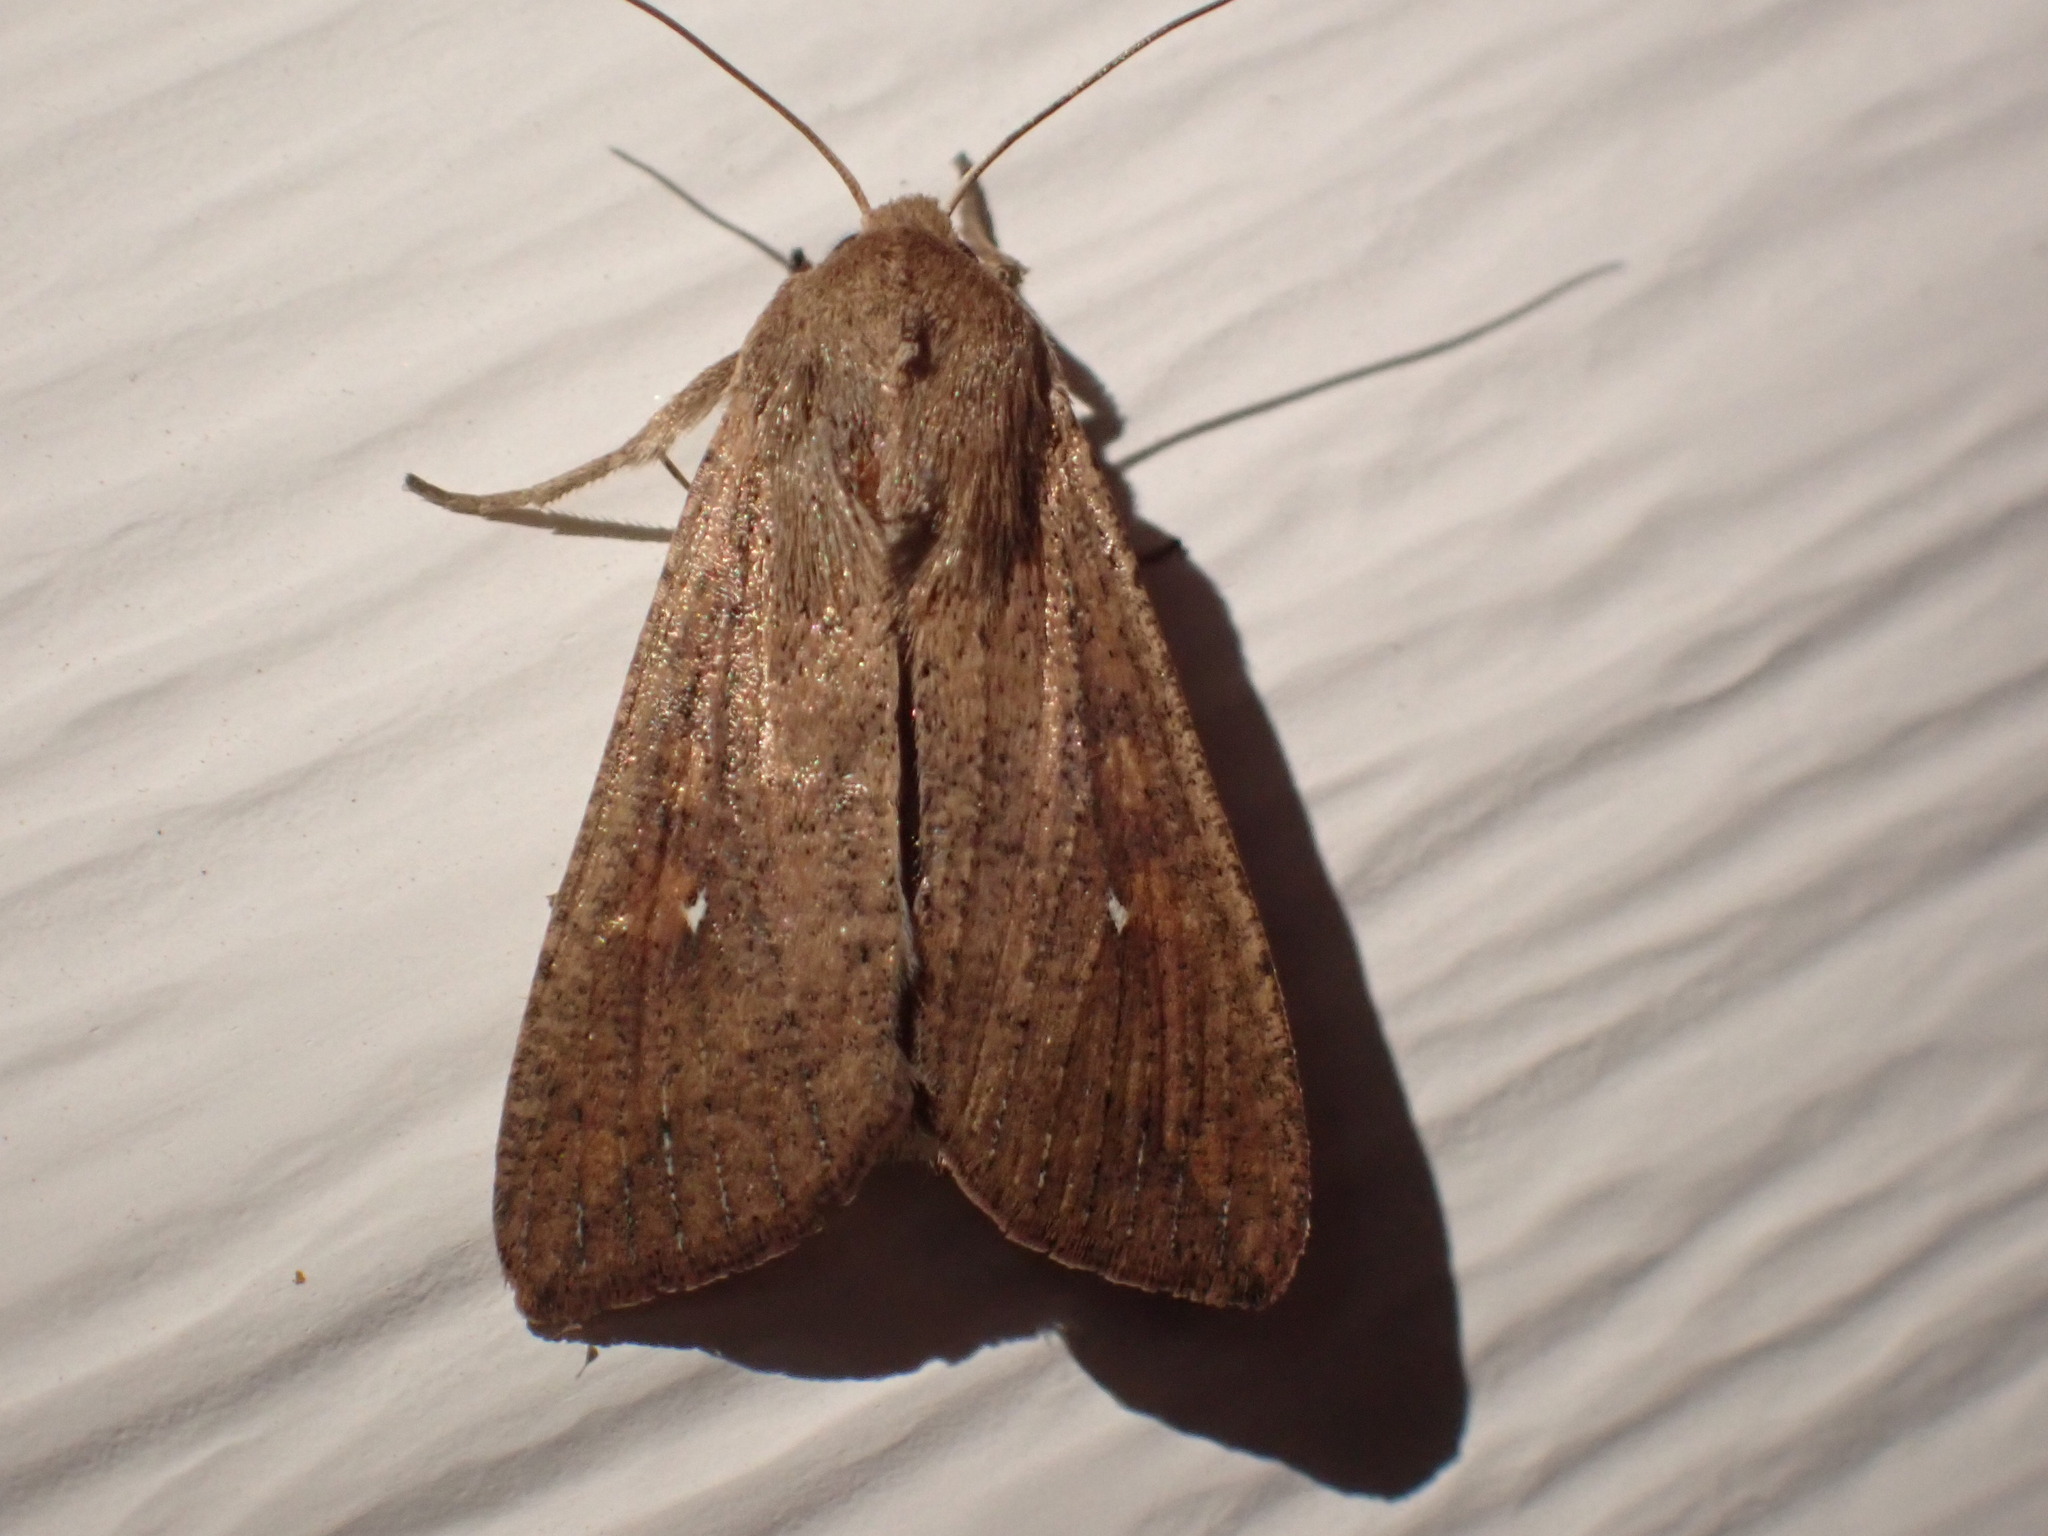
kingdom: Animalia
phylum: Arthropoda
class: Insecta
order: Lepidoptera
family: Noctuidae
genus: Mythimna
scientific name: Mythimna unipuncta
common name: White-speck
